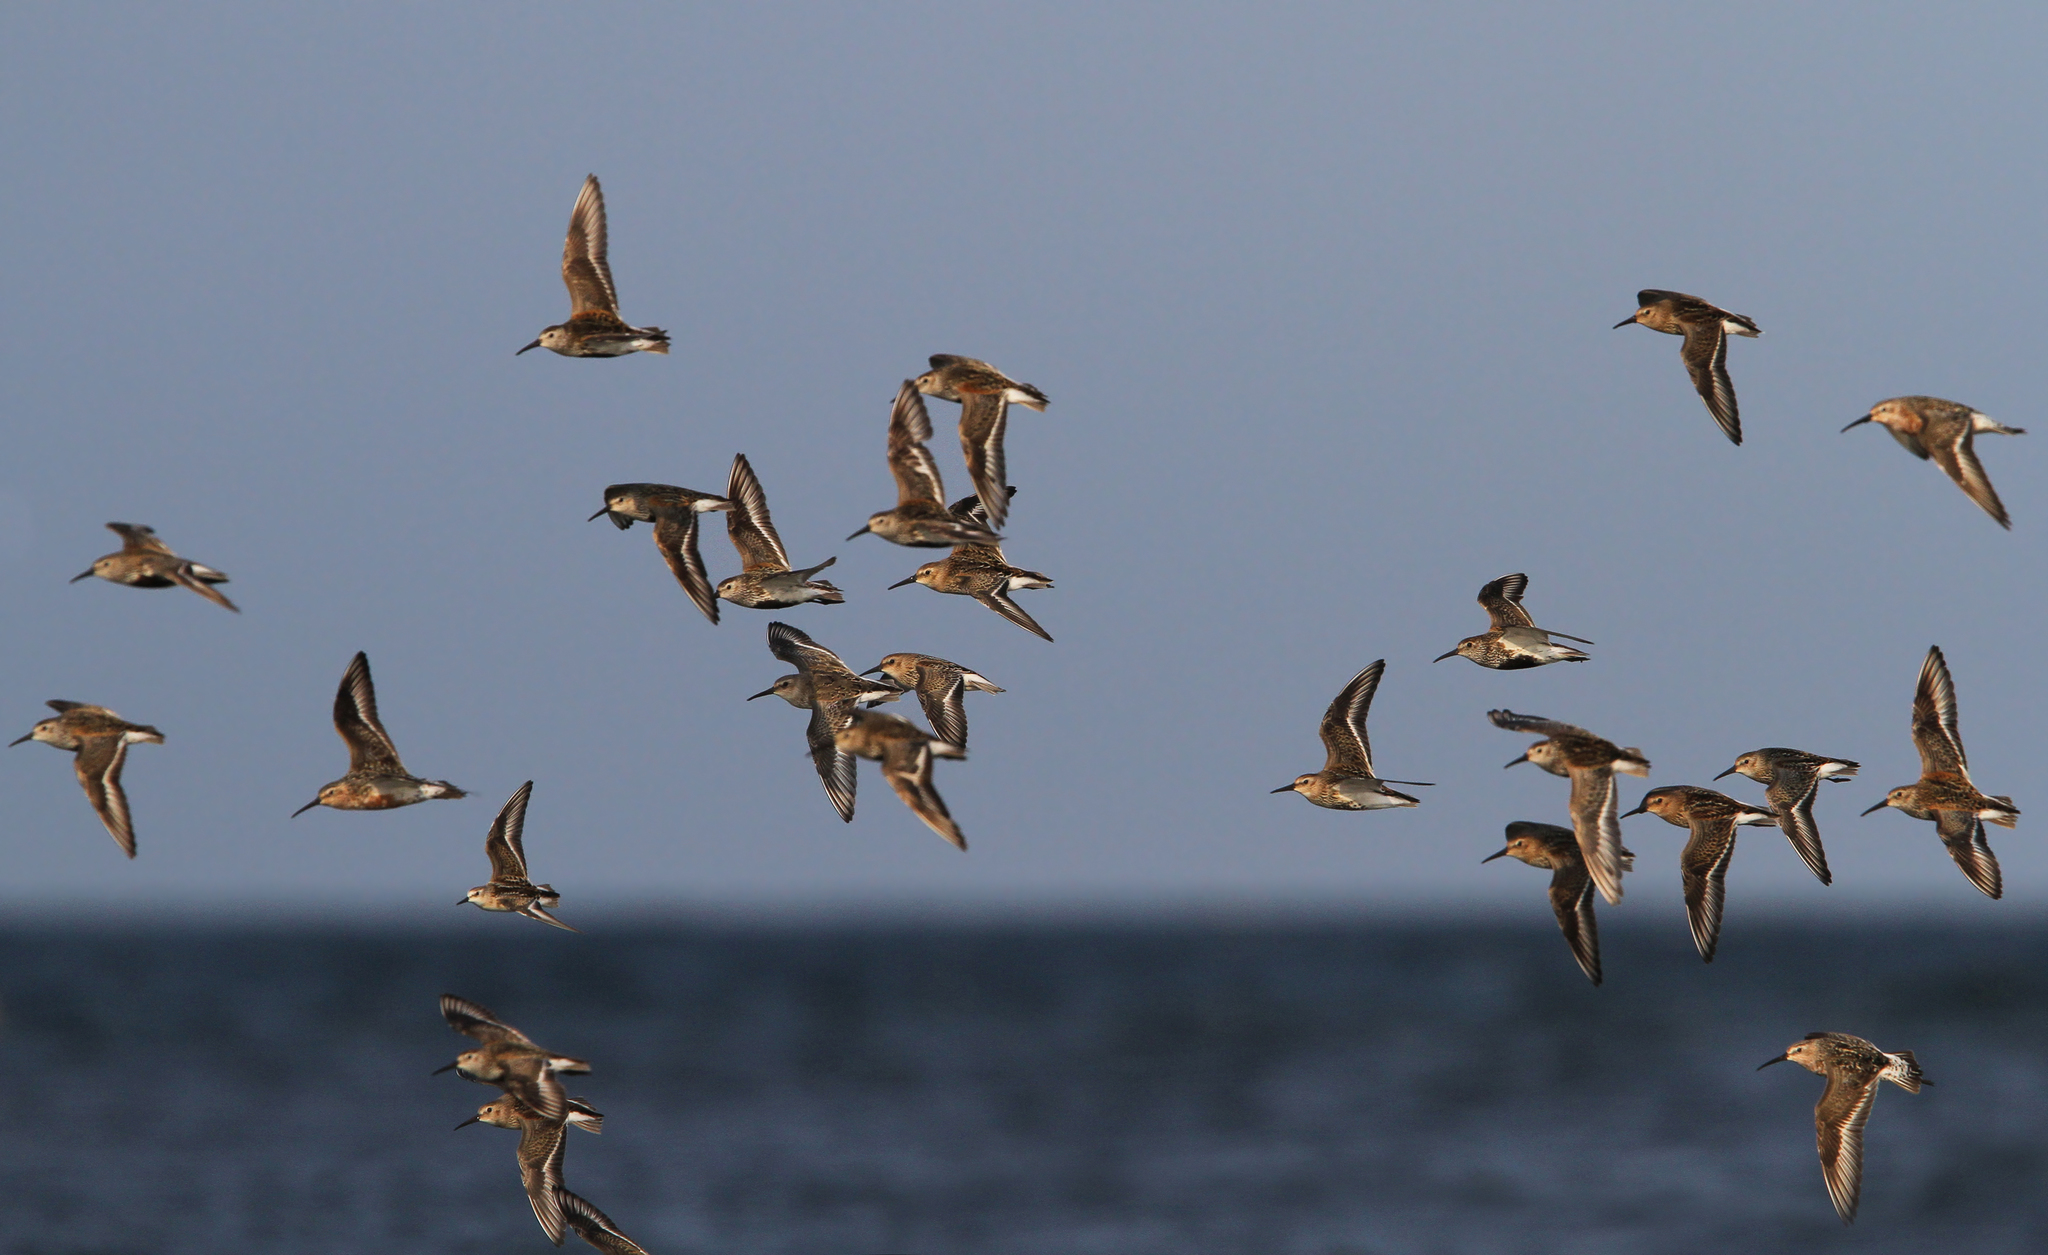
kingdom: Animalia
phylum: Chordata
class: Aves
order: Charadriiformes
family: Scolopacidae
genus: Calidris
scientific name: Calidris alpina
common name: Dunlin
